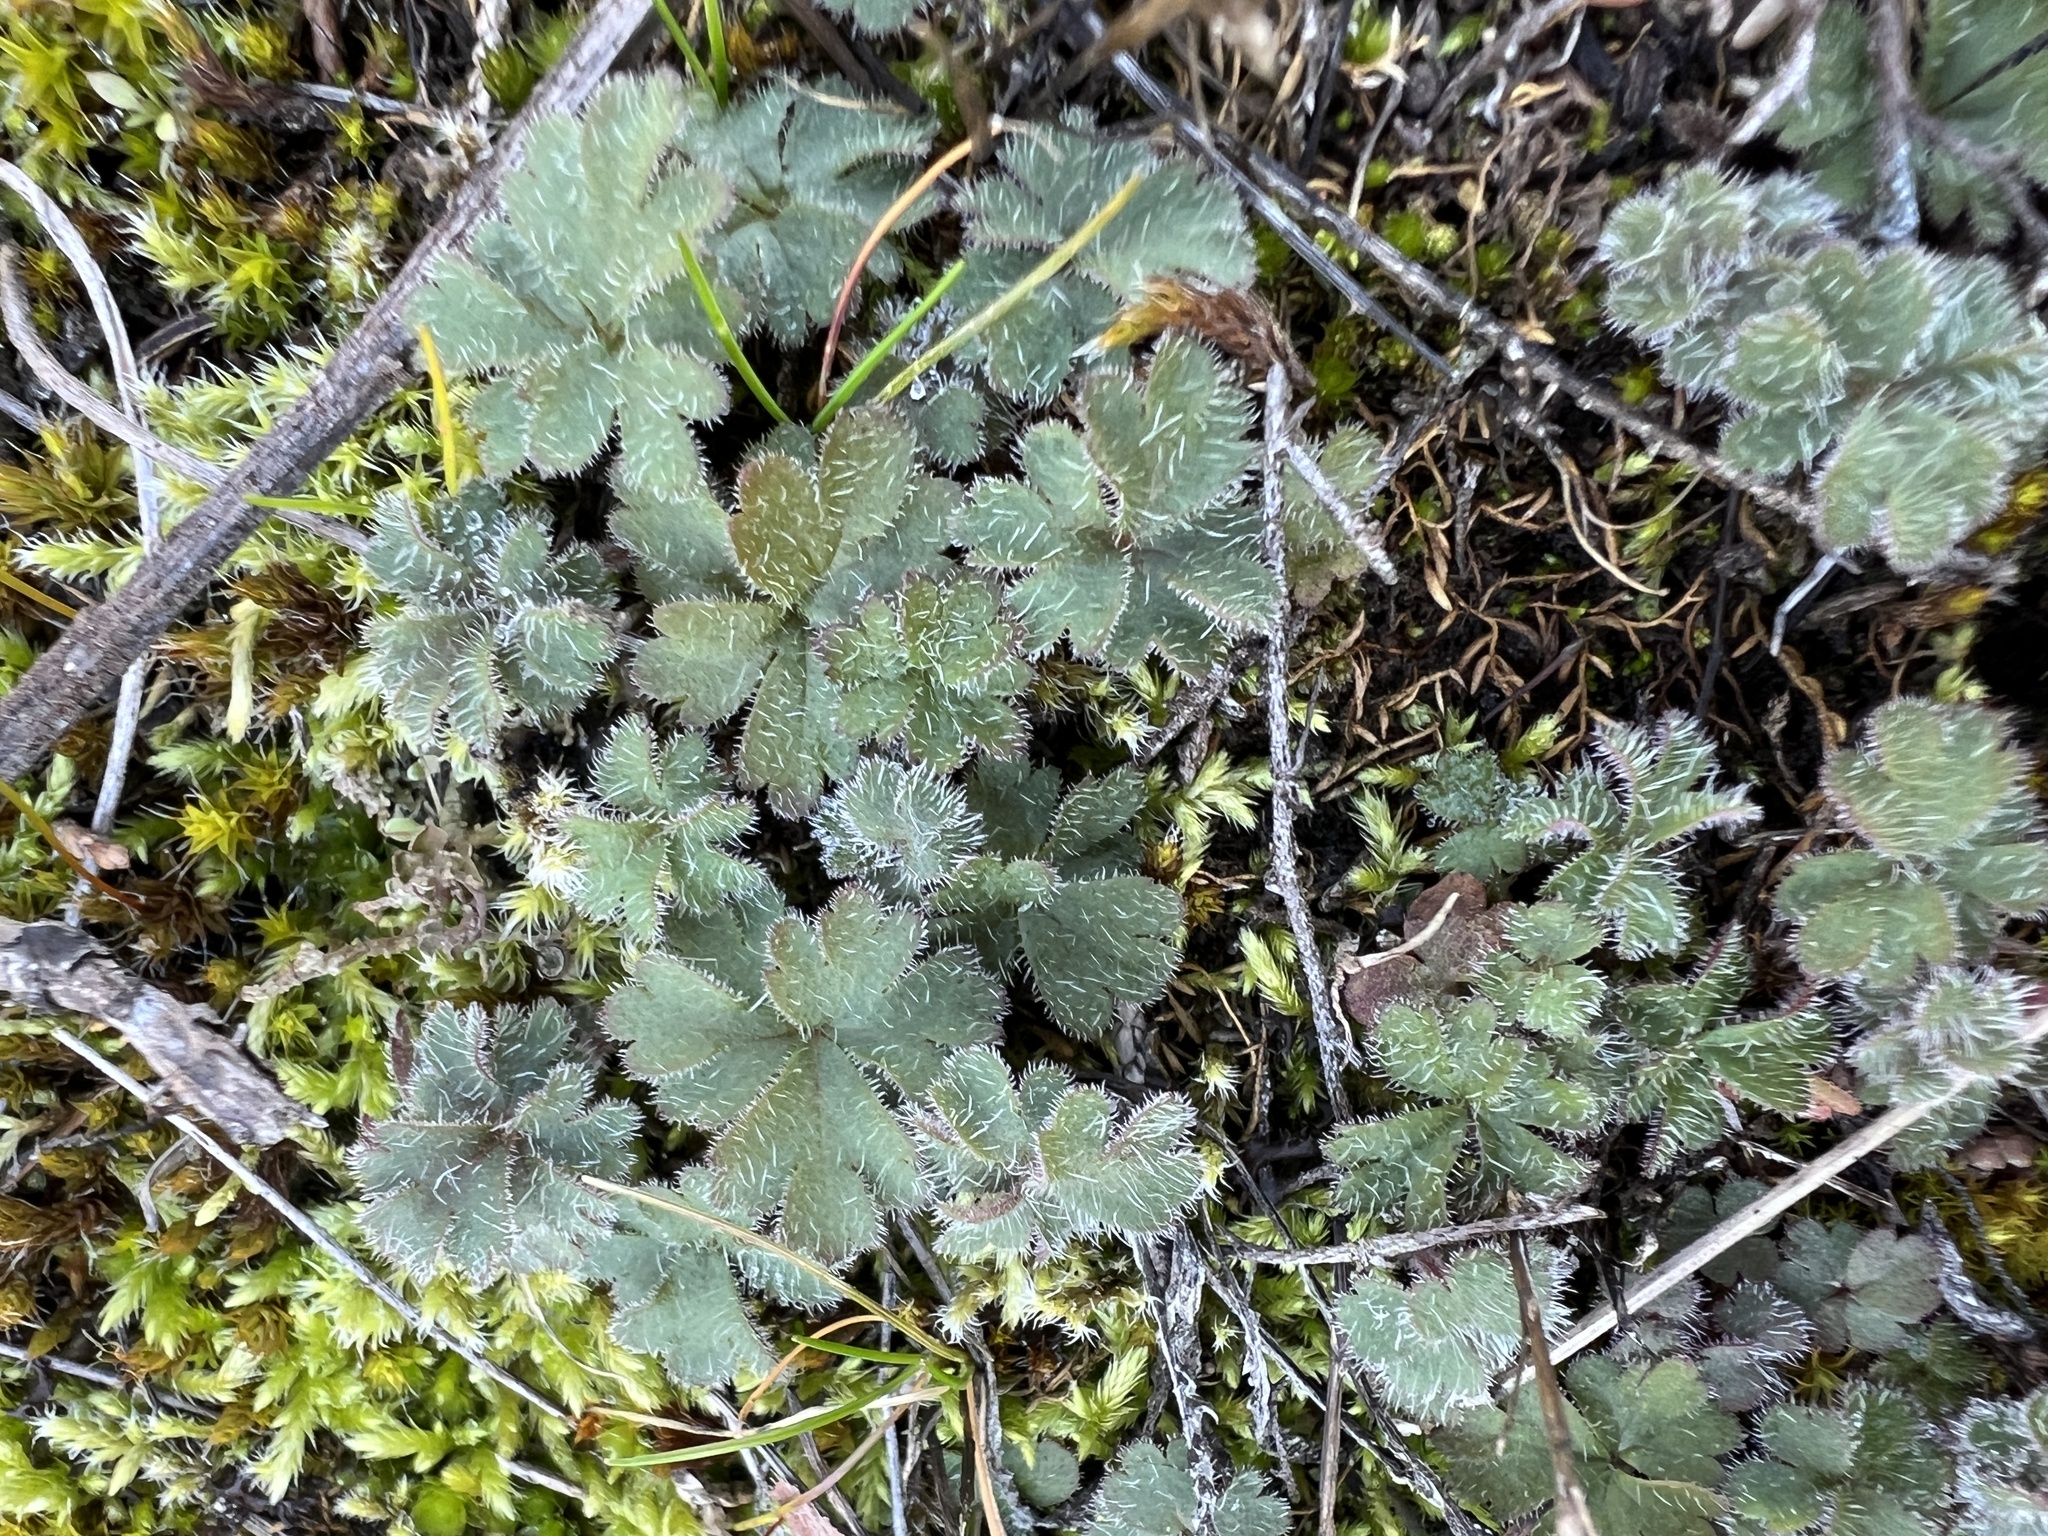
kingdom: Plantae
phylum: Tracheophyta
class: Magnoliopsida
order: Saxifragales
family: Saxifragaceae
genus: Lithophragma
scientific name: Lithophragma parviflorum
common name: Small-flowered fringe-cup
